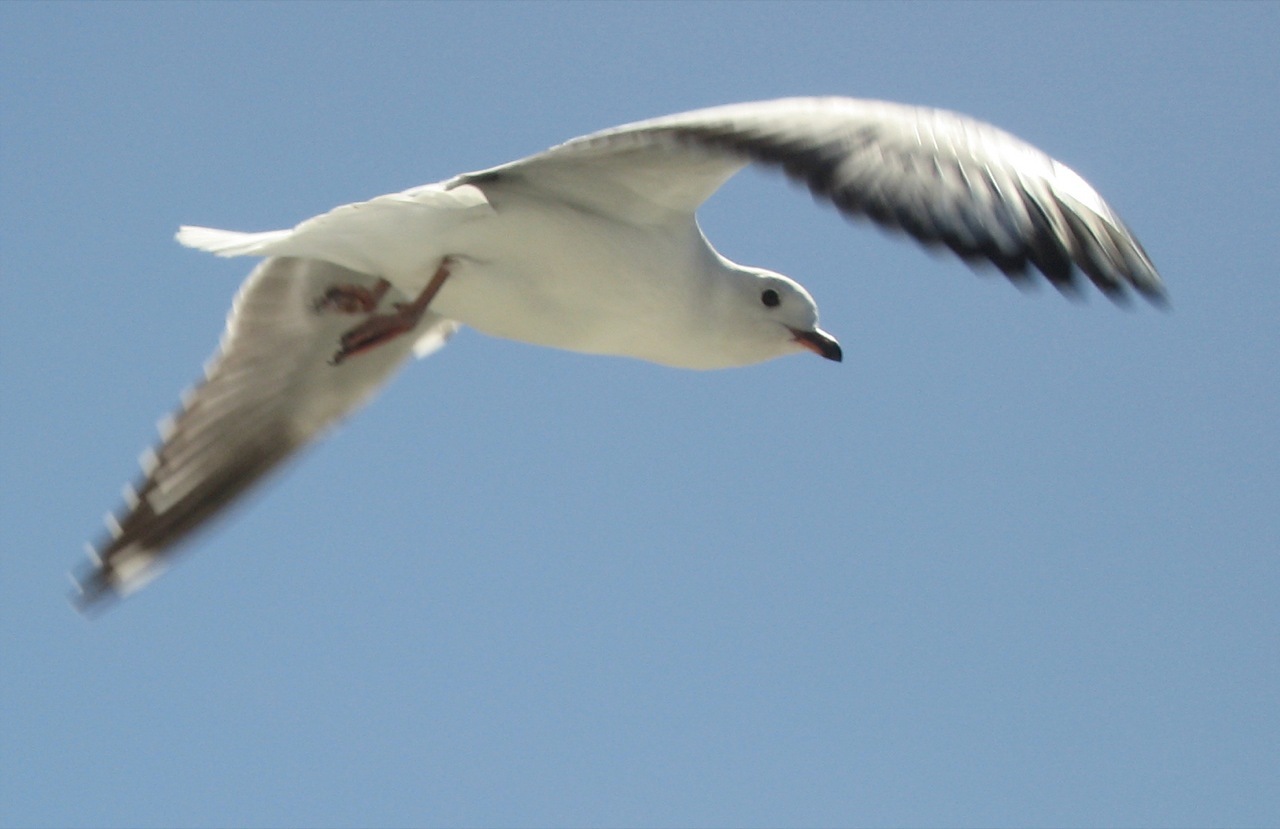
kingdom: Animalia
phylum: Chordata
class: Aves
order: Charadriiformes
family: Laridae
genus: Chroicocephalus
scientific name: Chroicocephalus novaehollandiae
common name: Silver gull
